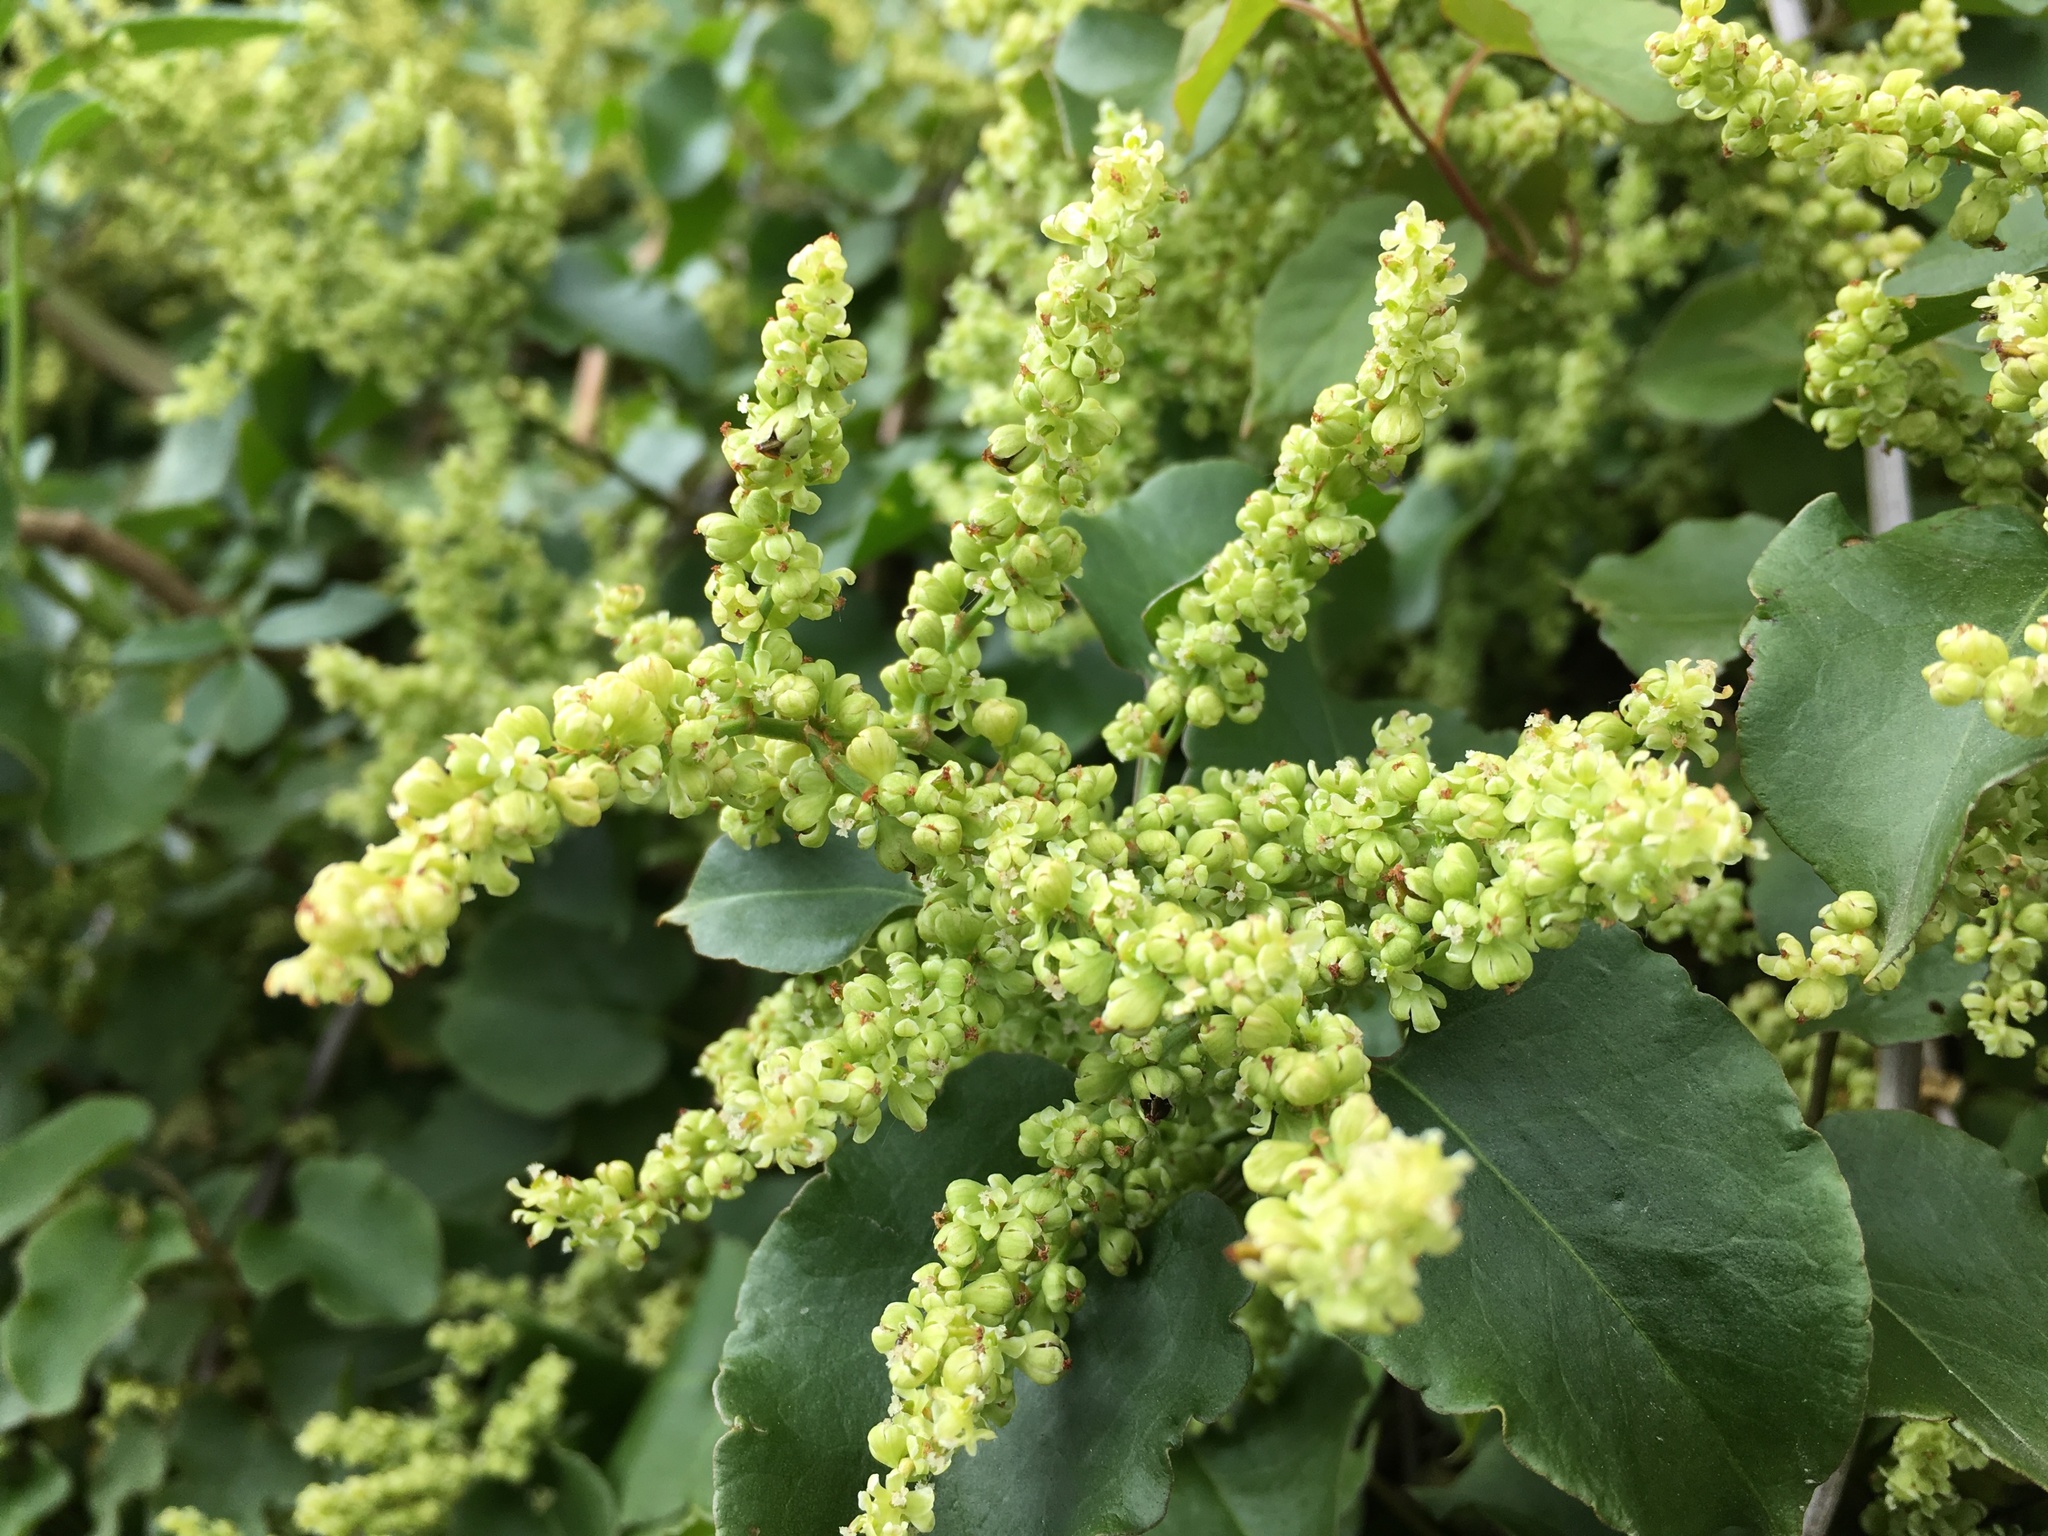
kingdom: Plantae
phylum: Tracheophyta
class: Magnoliopsida
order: Caryophyllales
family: Polygonaceae
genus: Muehlenbeckia
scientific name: Muehlenbeckia australis
